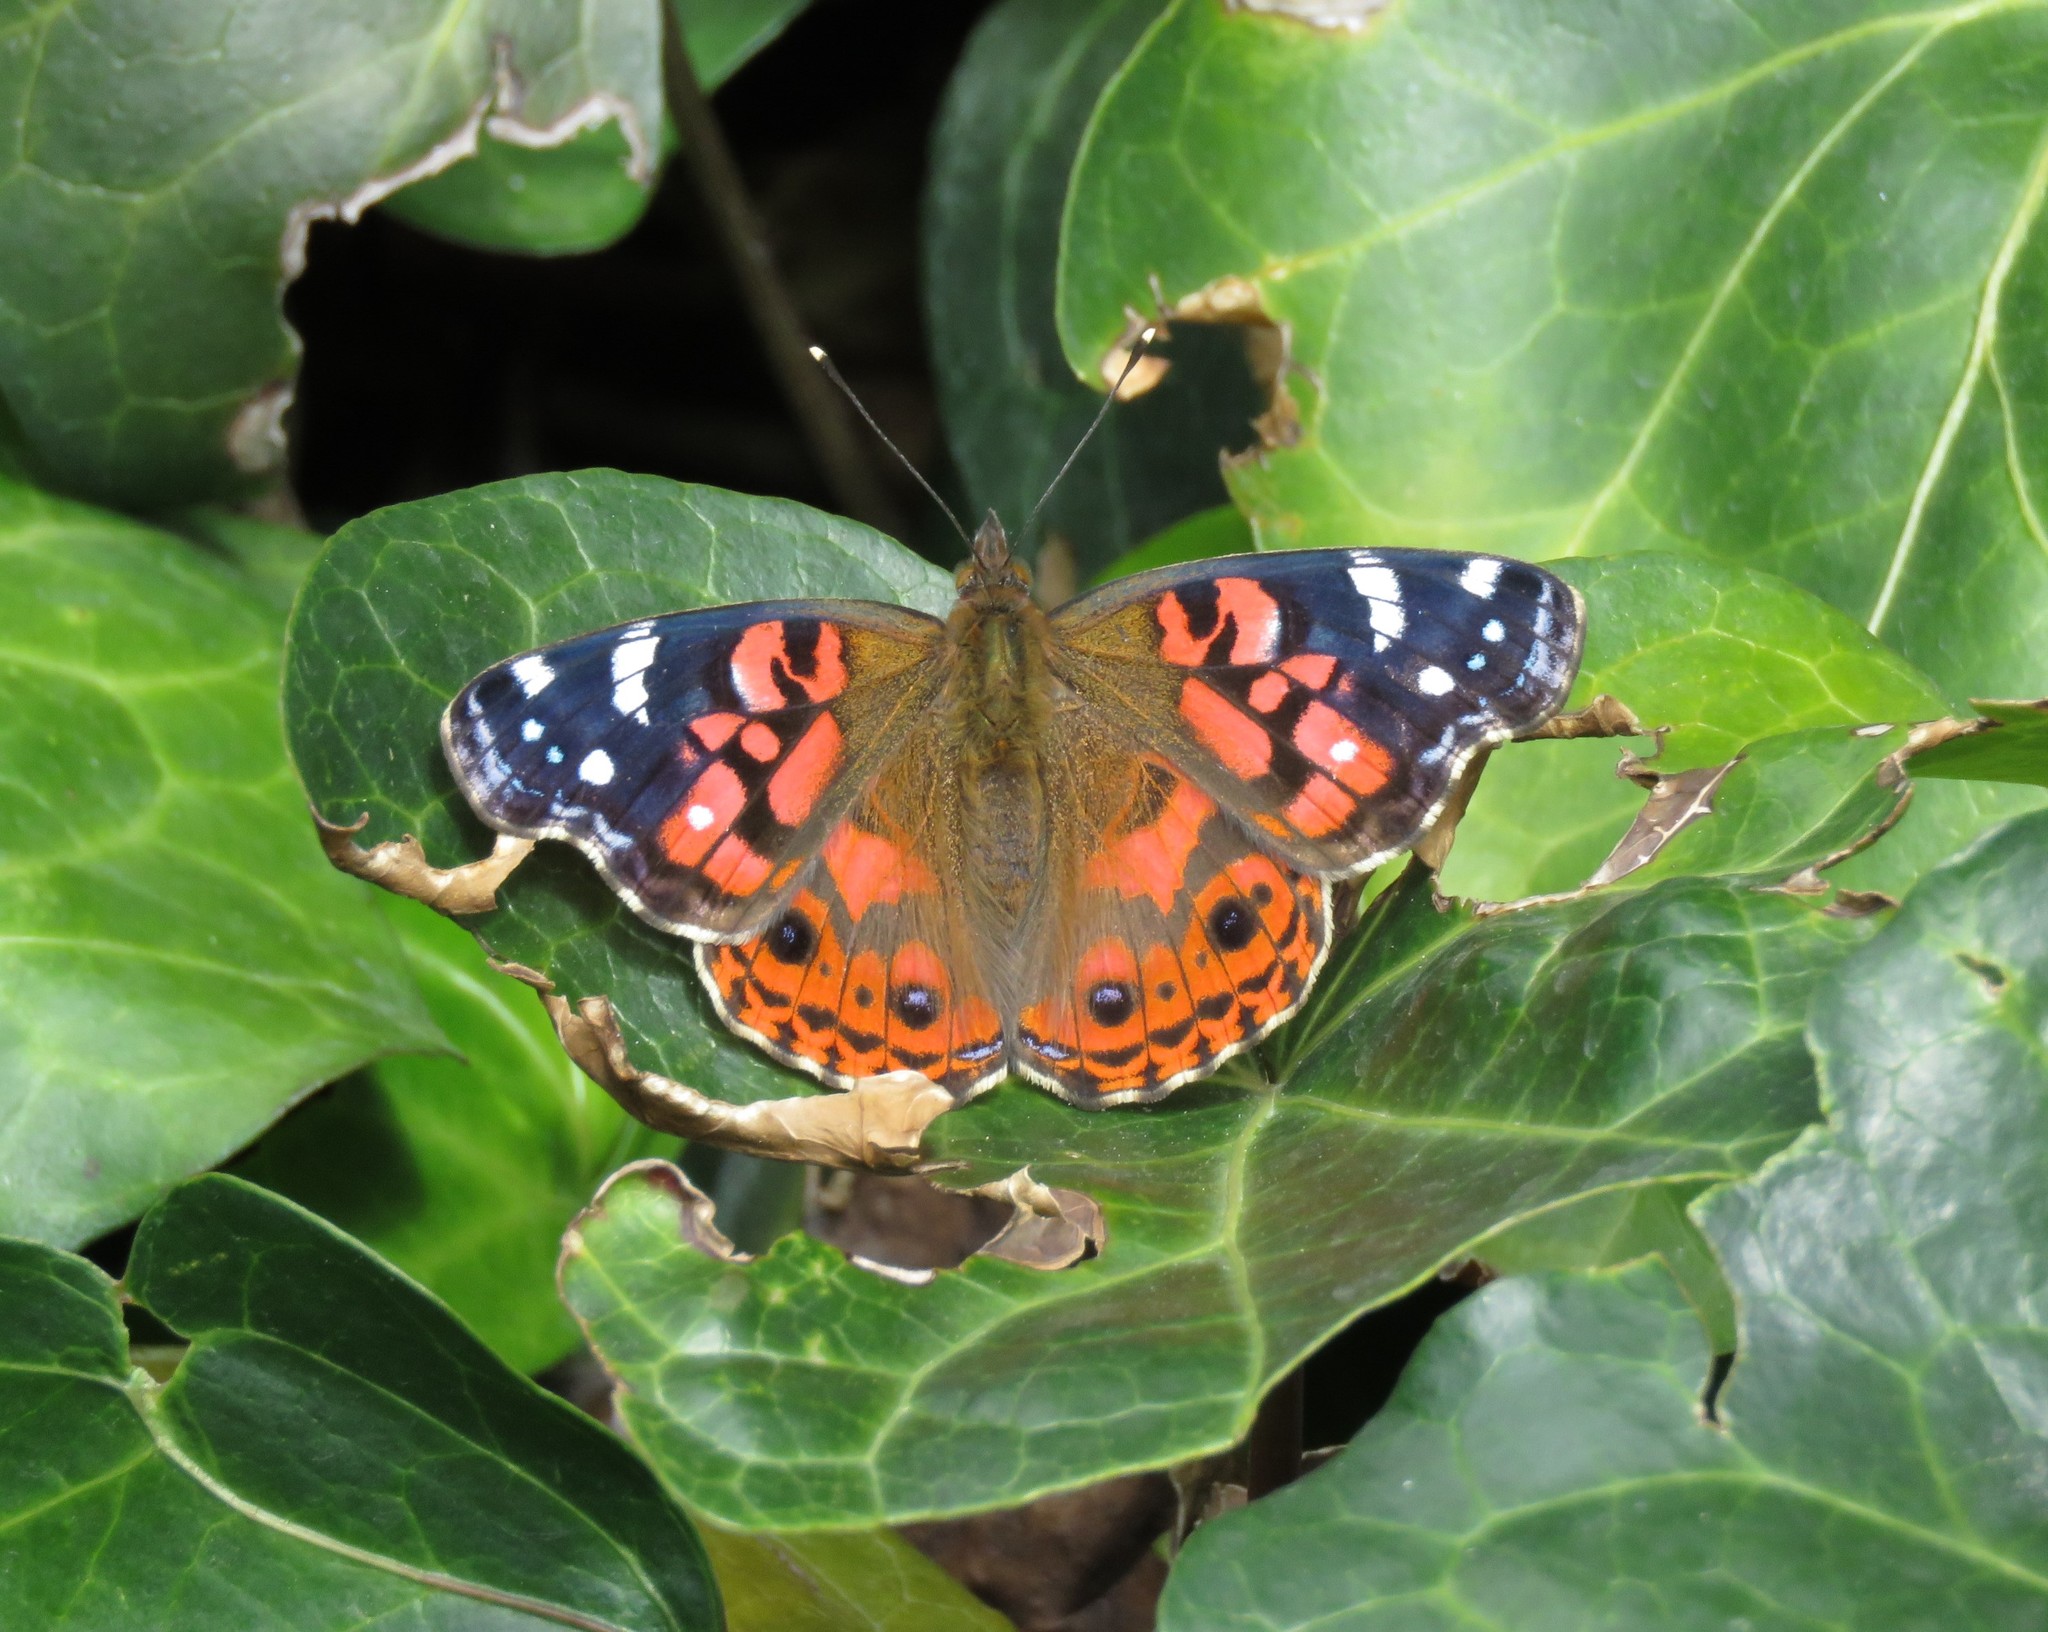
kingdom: Animalia
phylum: Arthropoda
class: Insecta
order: Lepidoptera
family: Nymphalidae
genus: Vanessa
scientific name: Vanessa braziliensis
